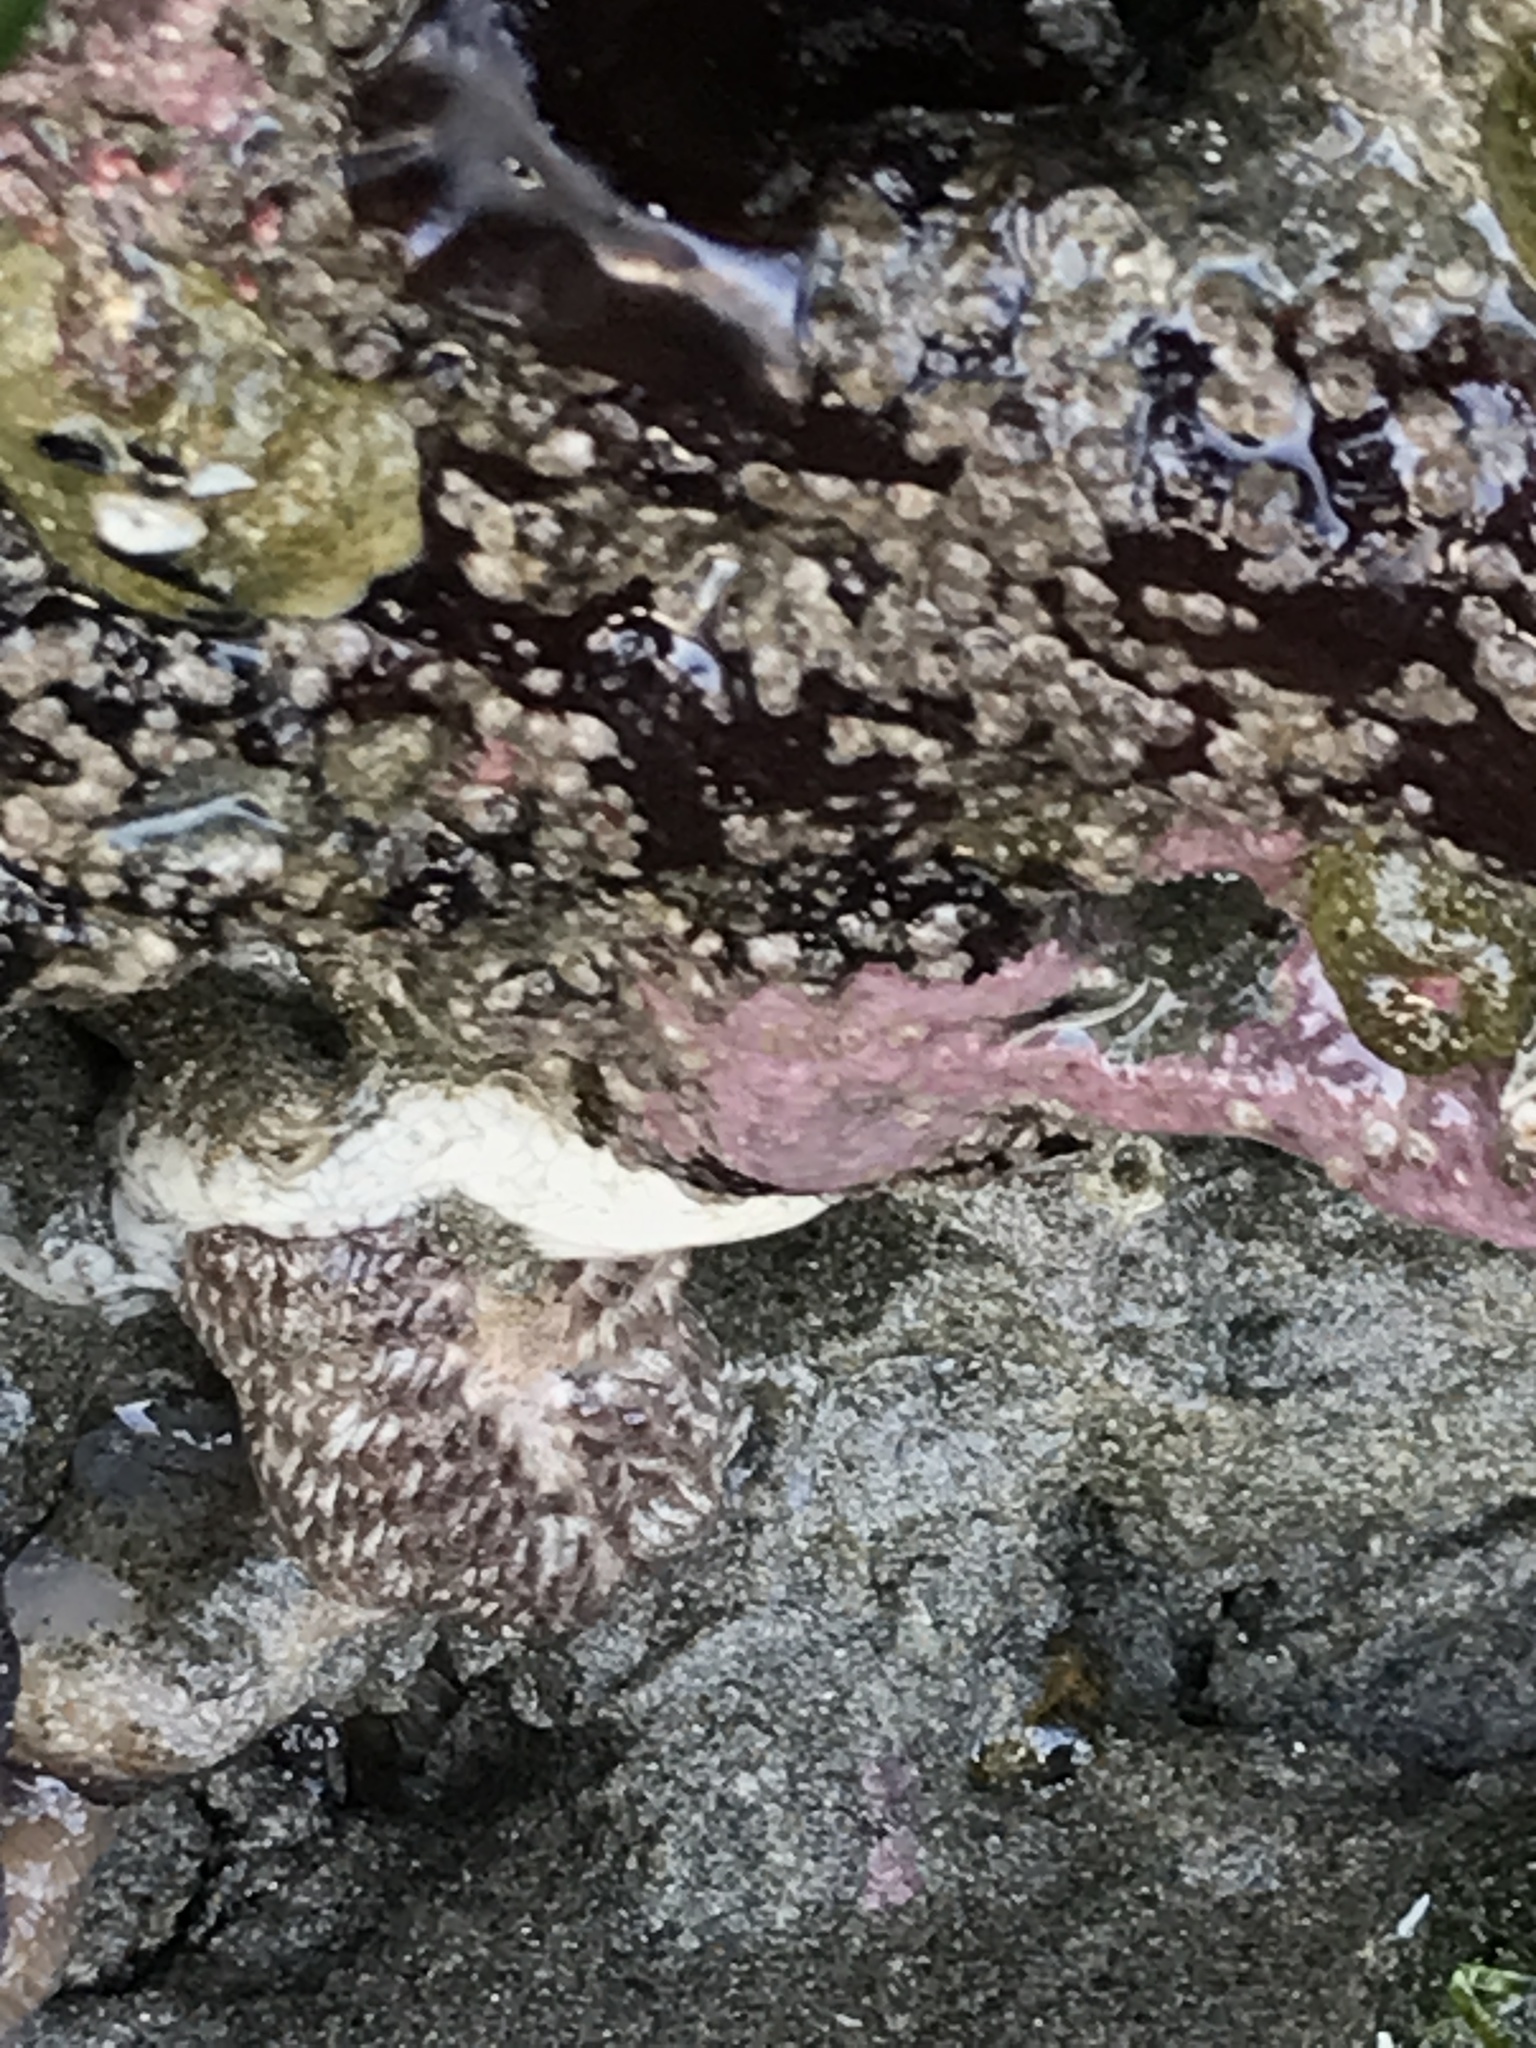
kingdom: Animalia
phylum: Mollusca
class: Gastropoda
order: Nudibranchia
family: Aeolidiidae
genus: Aeolidia
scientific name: Aeolidia loui
